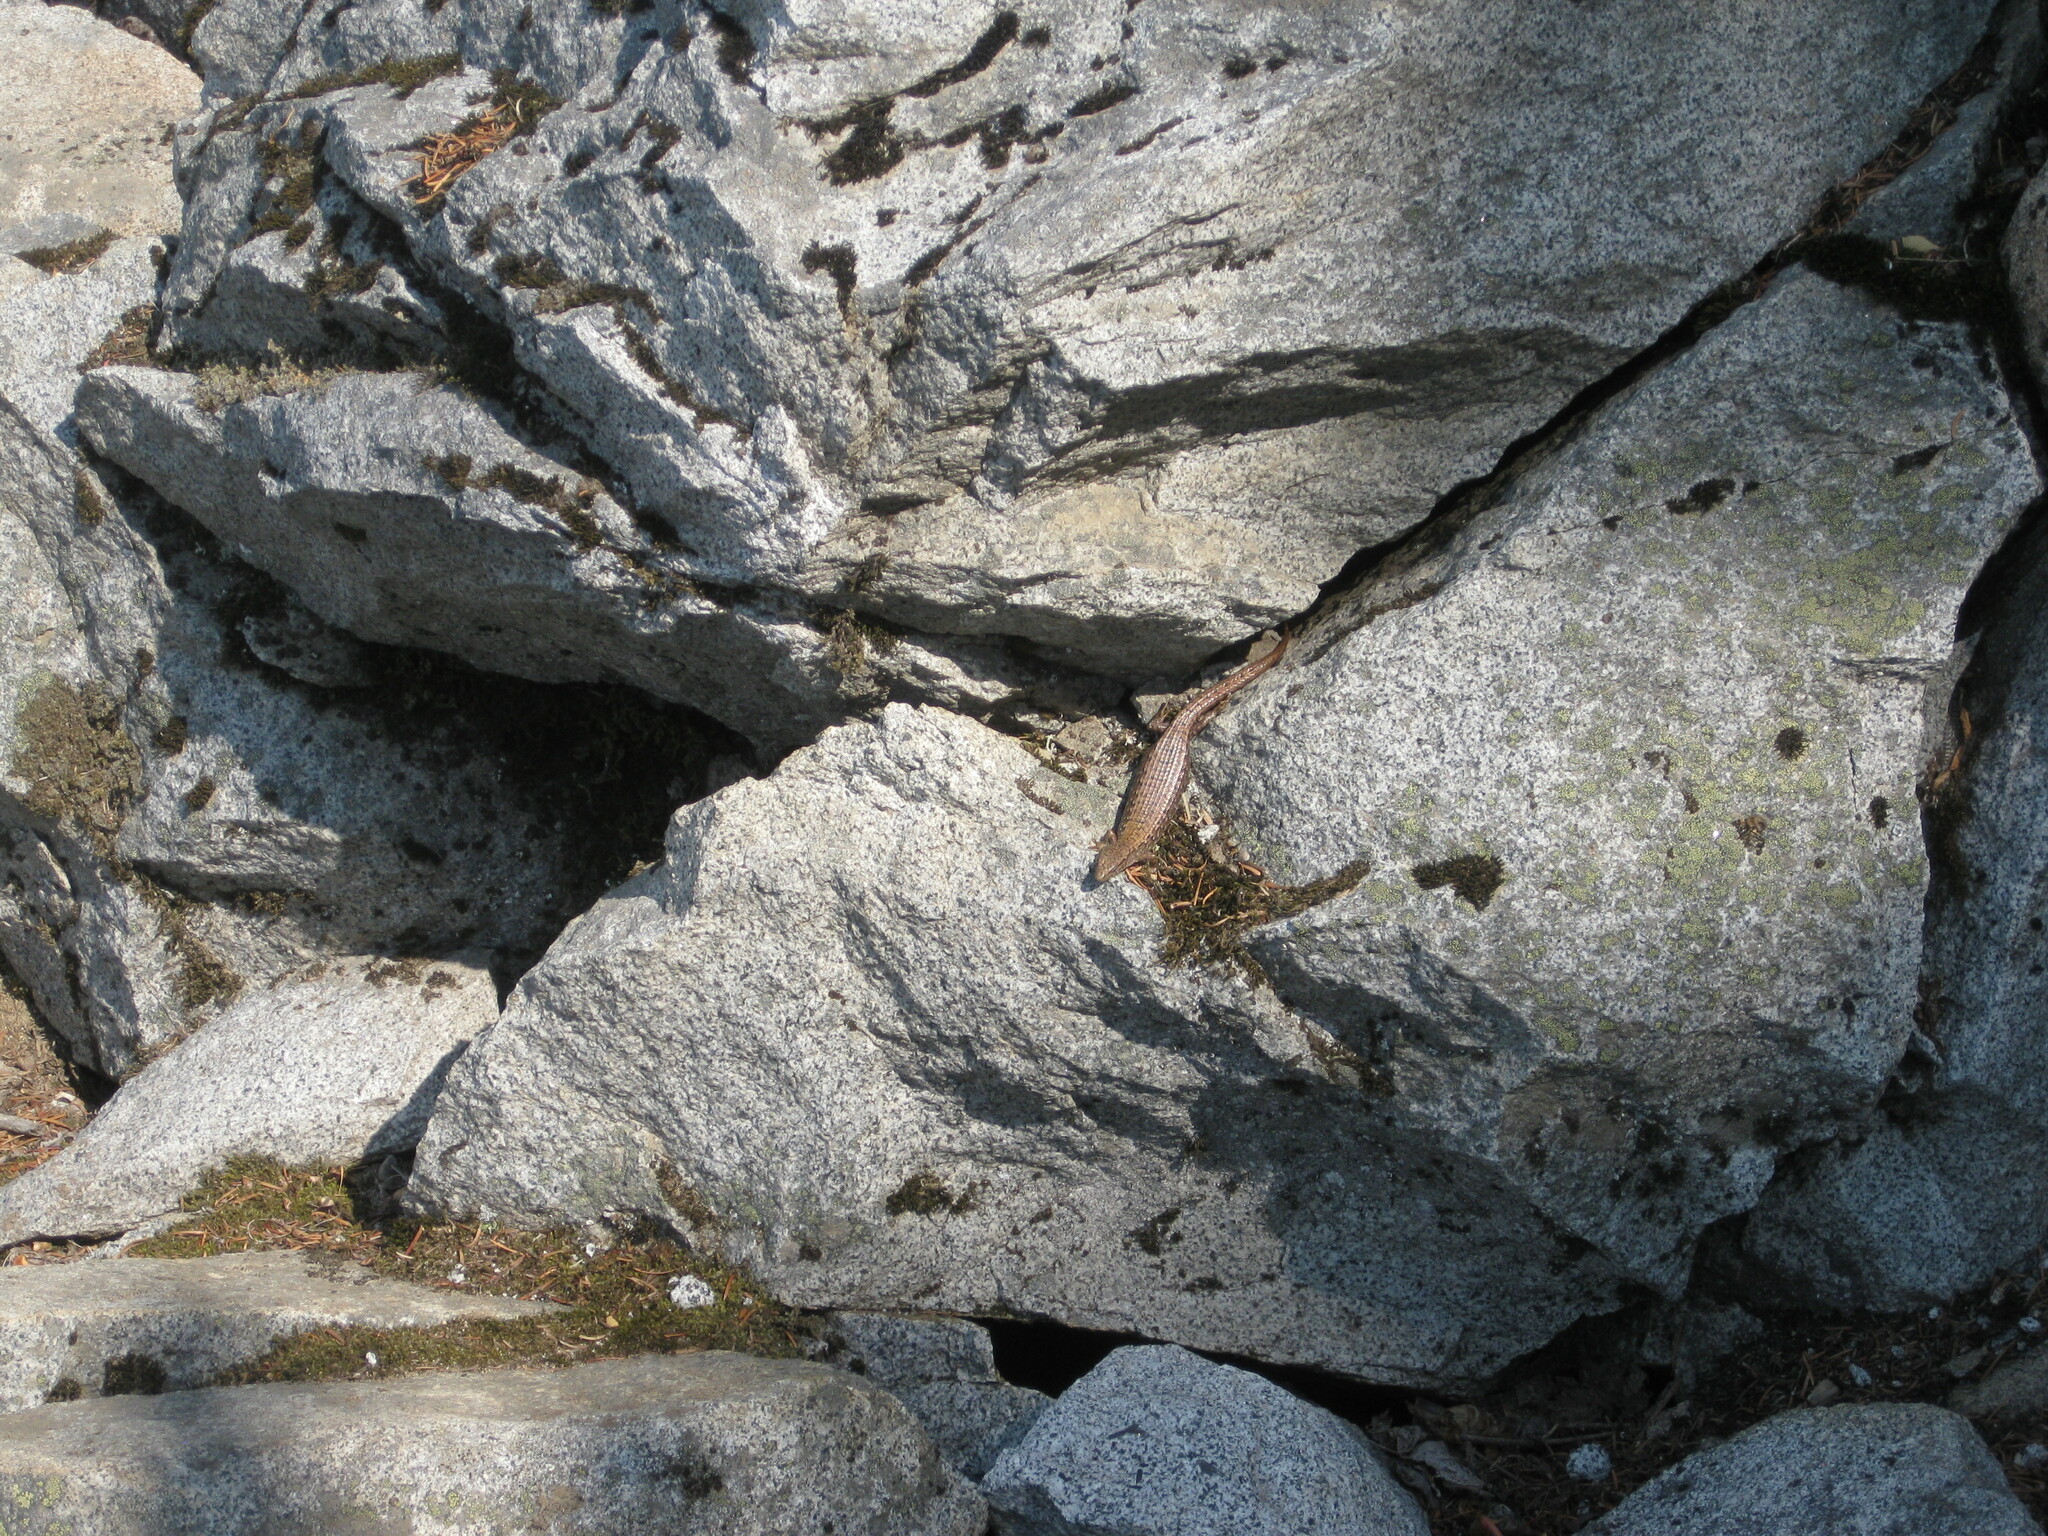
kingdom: Animalia
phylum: Chordata
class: Squamata
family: Anguidae
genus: Elgaria
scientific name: Elgaria coerulea
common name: Northern alligator lizard
